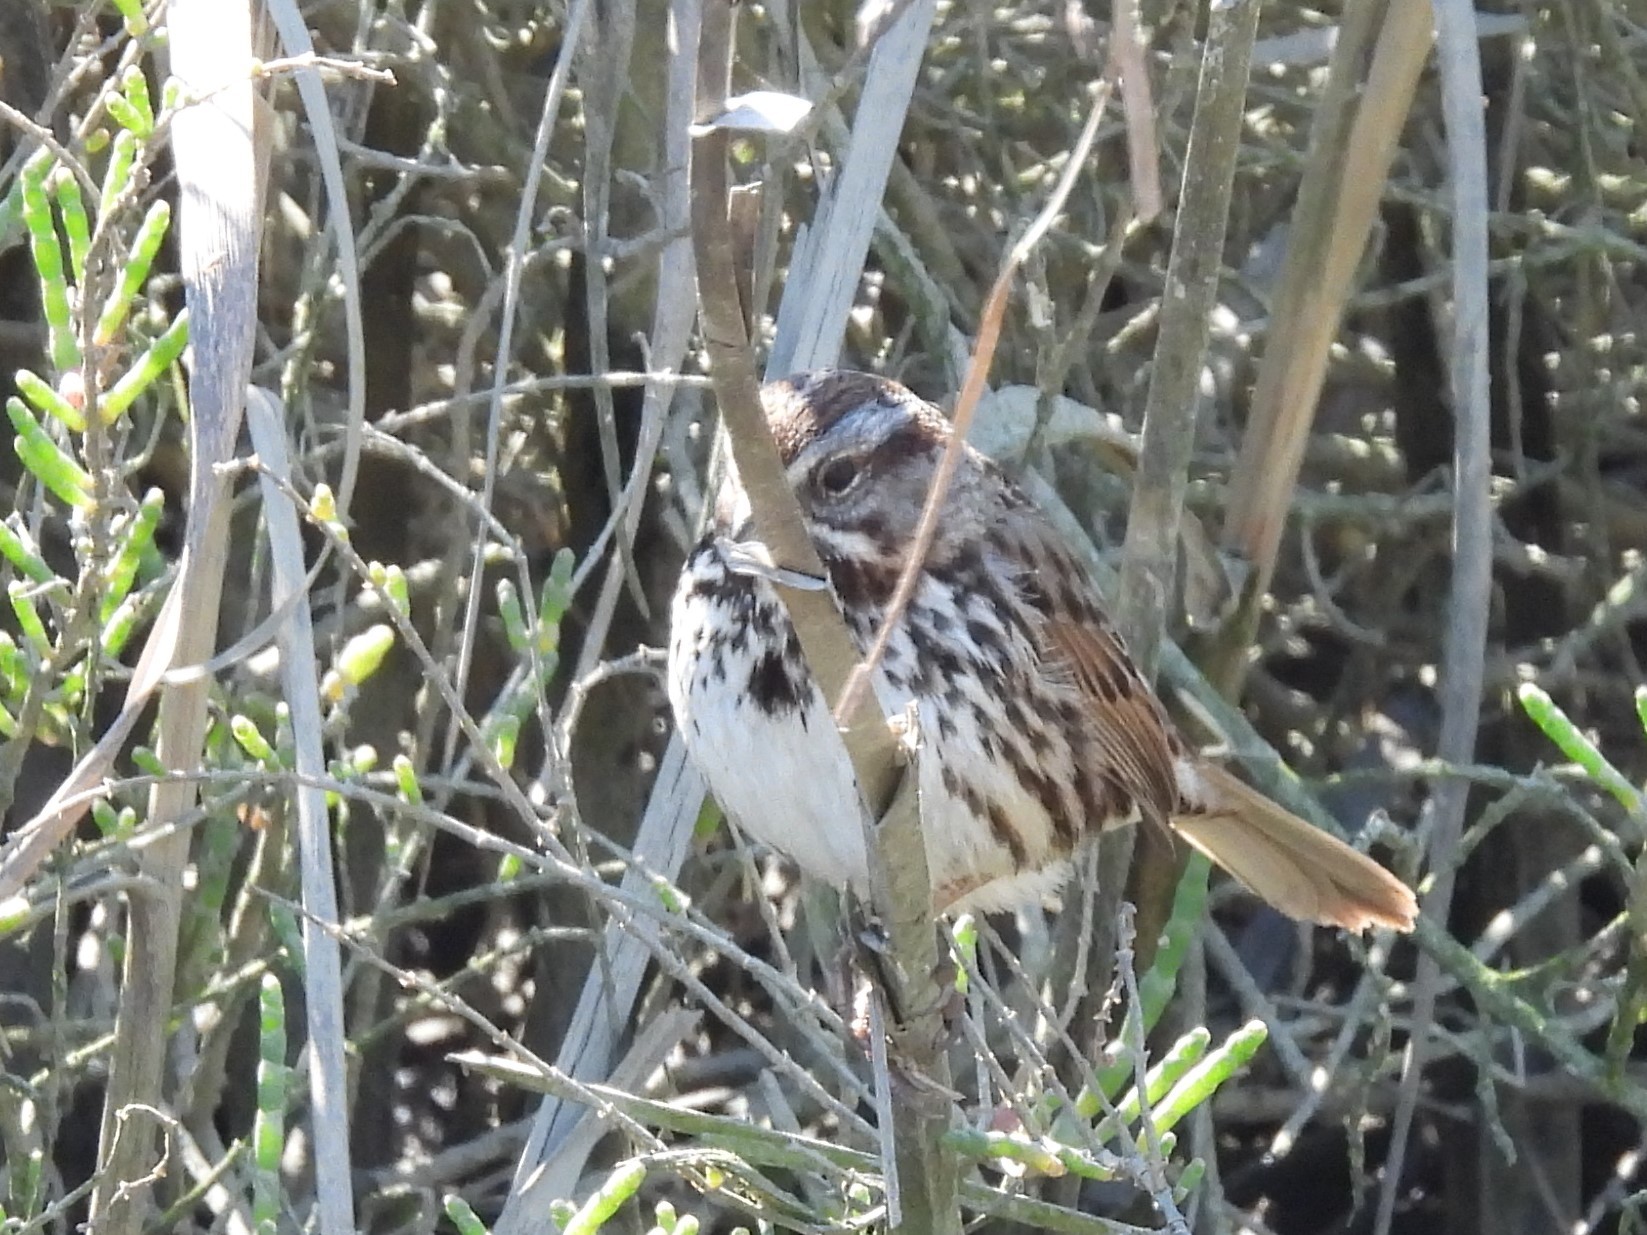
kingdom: Animalia
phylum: Chordata
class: Aves
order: Passeriformes
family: Passerellidae
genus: Melospiza
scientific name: Melospiza melodia
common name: Song sparrow
